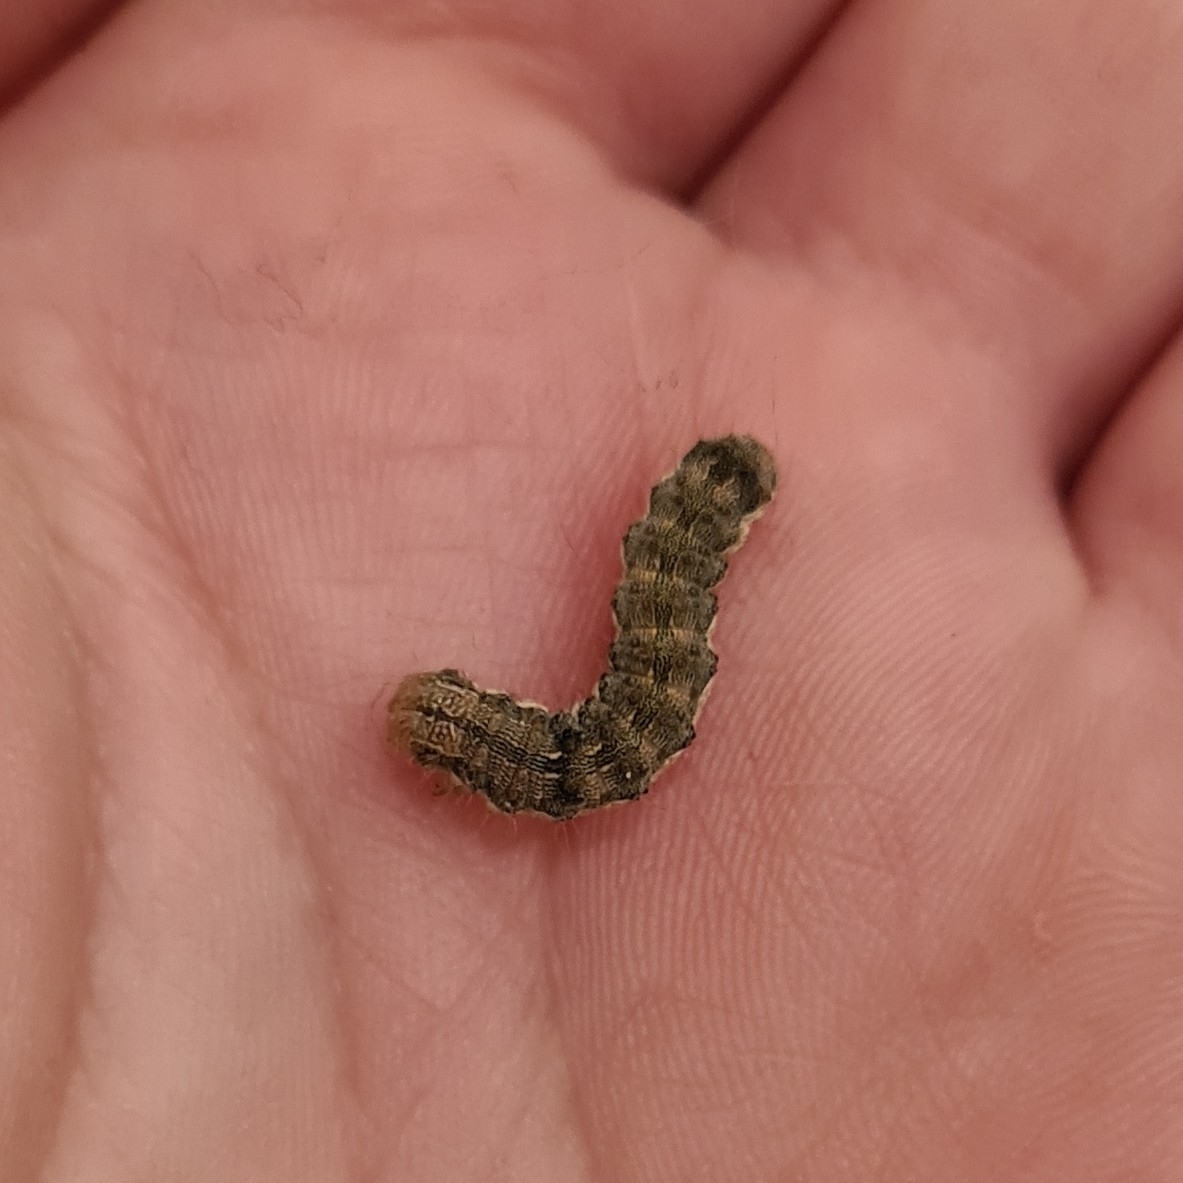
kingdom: Animalia
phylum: Arthropoda
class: Insecta
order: Lepidoptera
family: Noctuidae
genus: Helicoverpa
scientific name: Helicoverpa armigera
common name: Cotton bollworm
